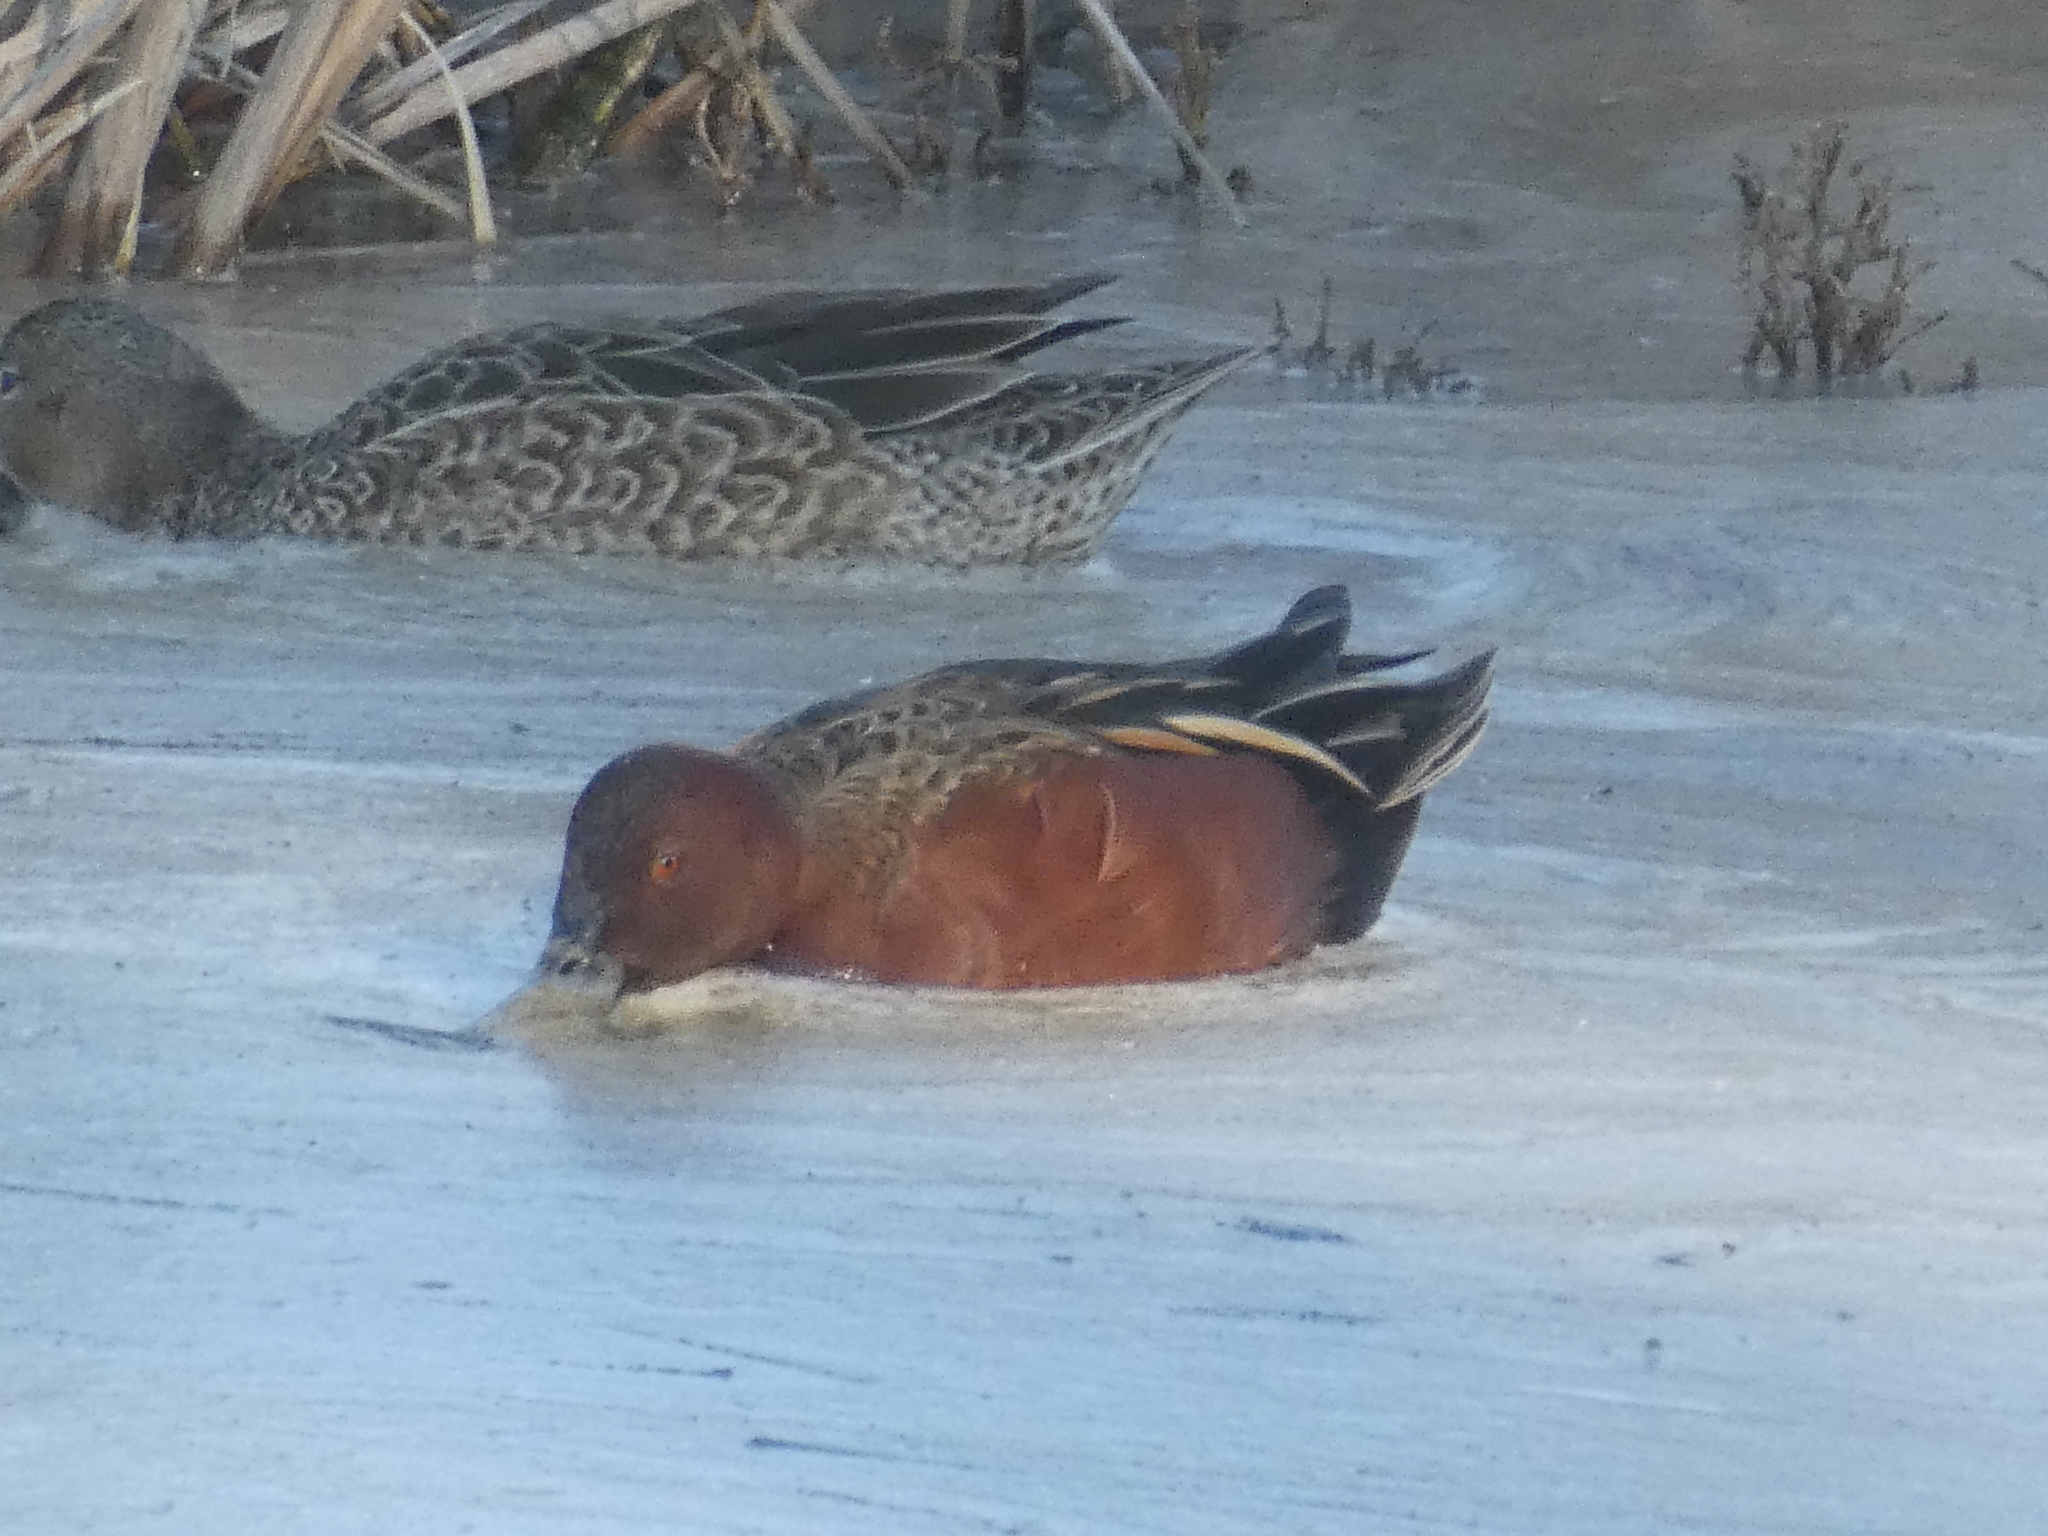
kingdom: Animalia
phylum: Chordata
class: Aves
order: Anseriformes
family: Anatidae
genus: Spatula
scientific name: Spatula cyanoptera
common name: Cinnamon teal
